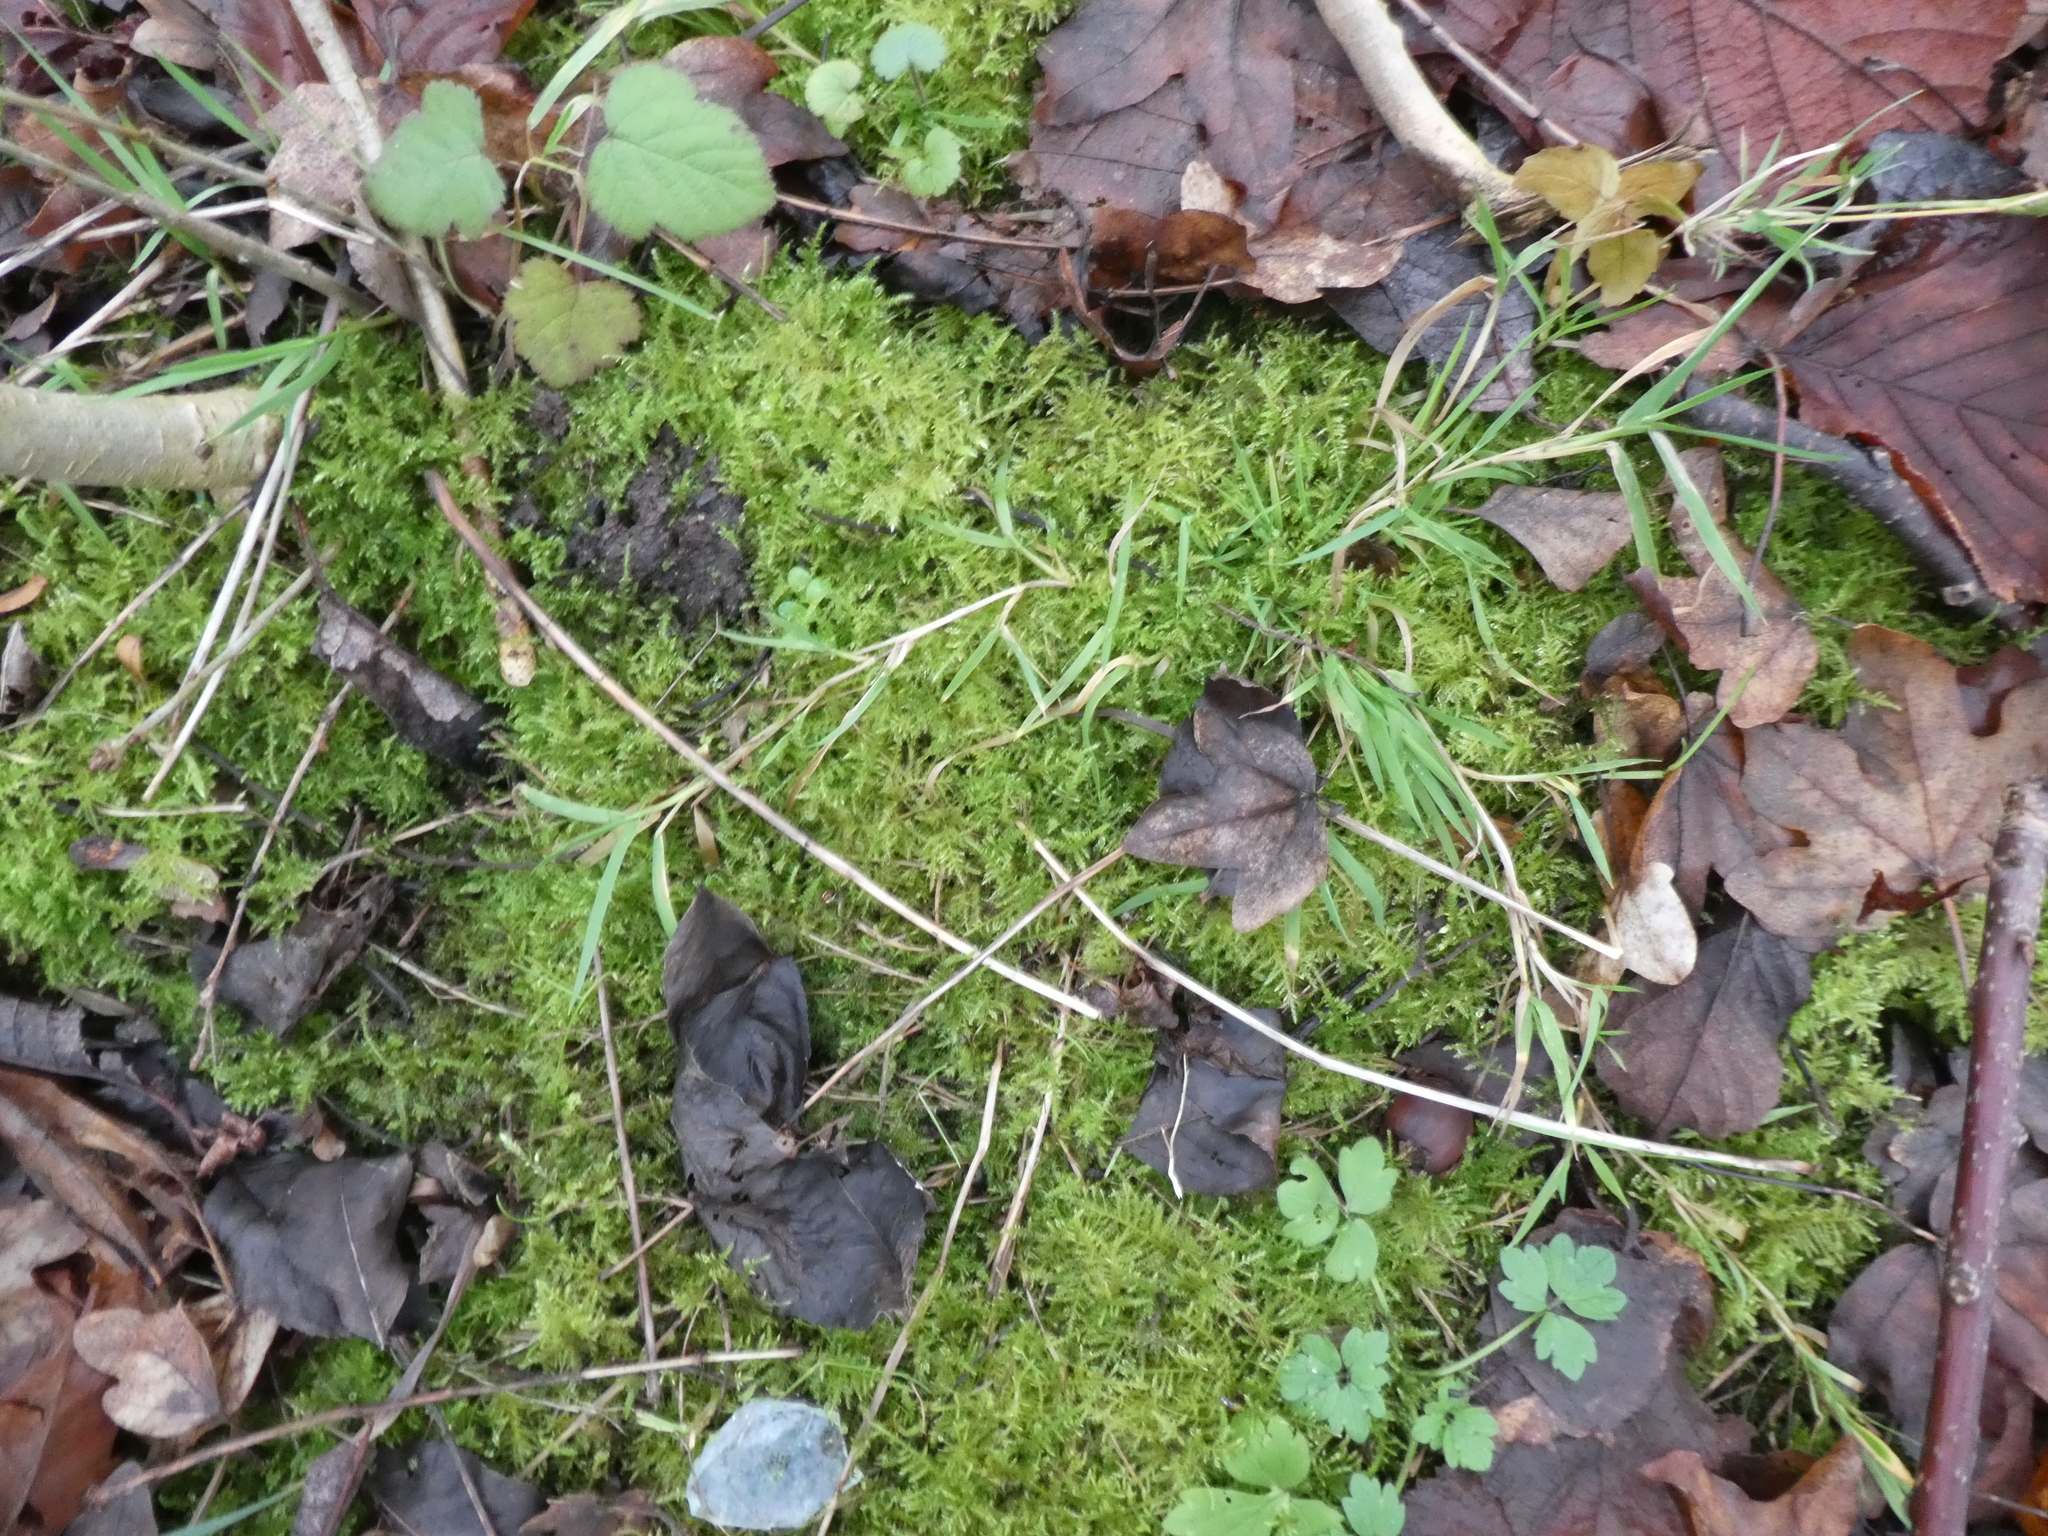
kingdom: Plantae
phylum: Bryophyta
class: Bryopsida
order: Hypnales
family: Brachytheciaceae
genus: Kindbergia
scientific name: Kindbergia praelonga
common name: Slender beaked moss
